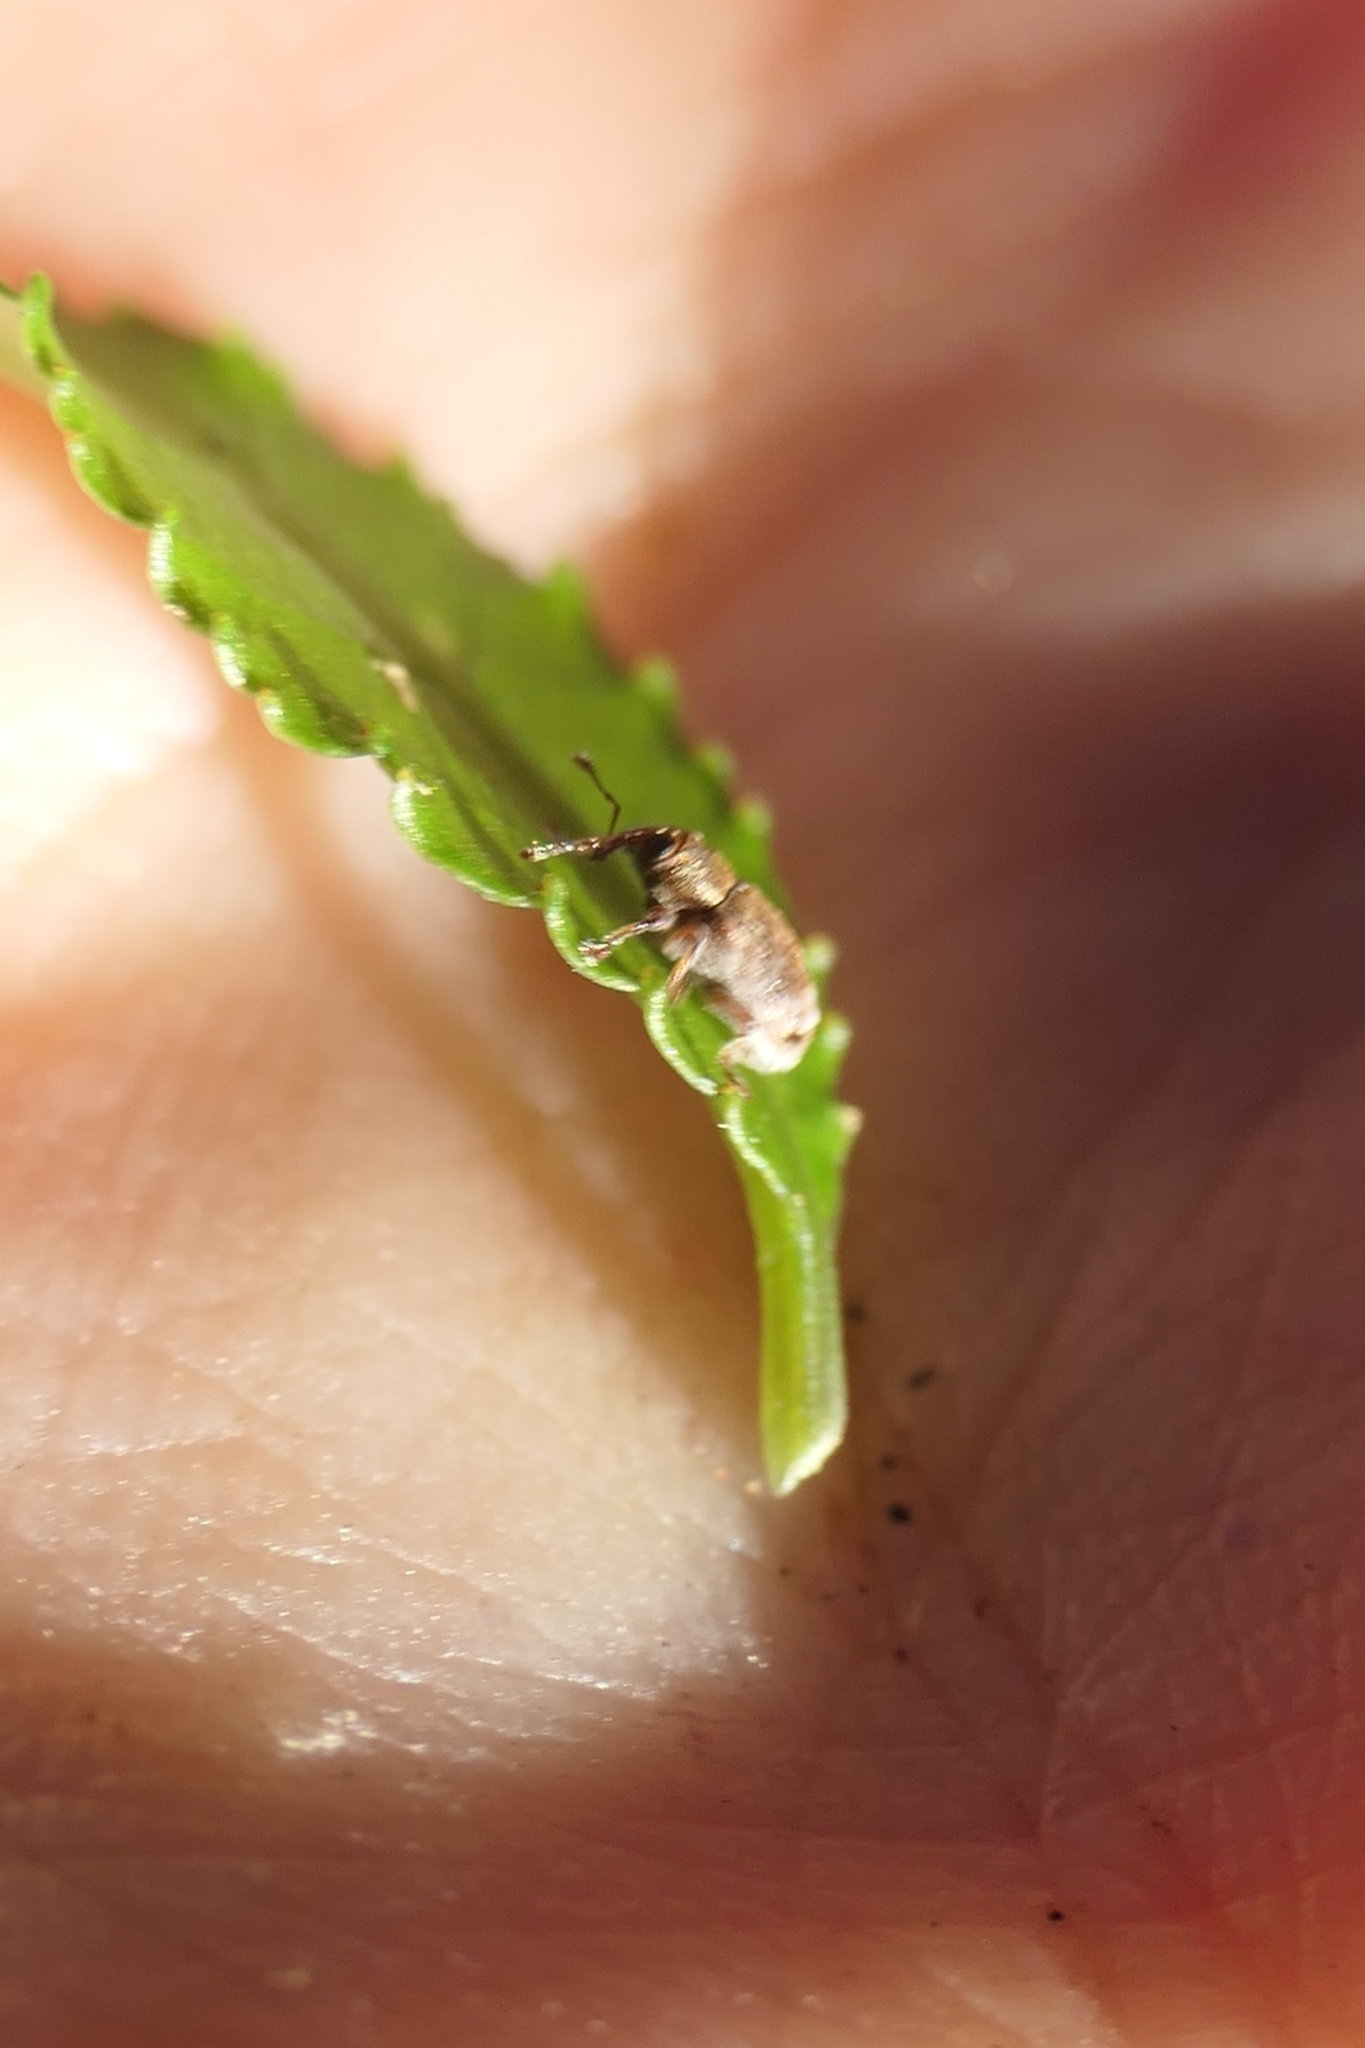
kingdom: Animalia
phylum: Arthropoda
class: Insecta
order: Coleoptera
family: Curculionidae
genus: Aneuma
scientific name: Aneuma fasciatum
